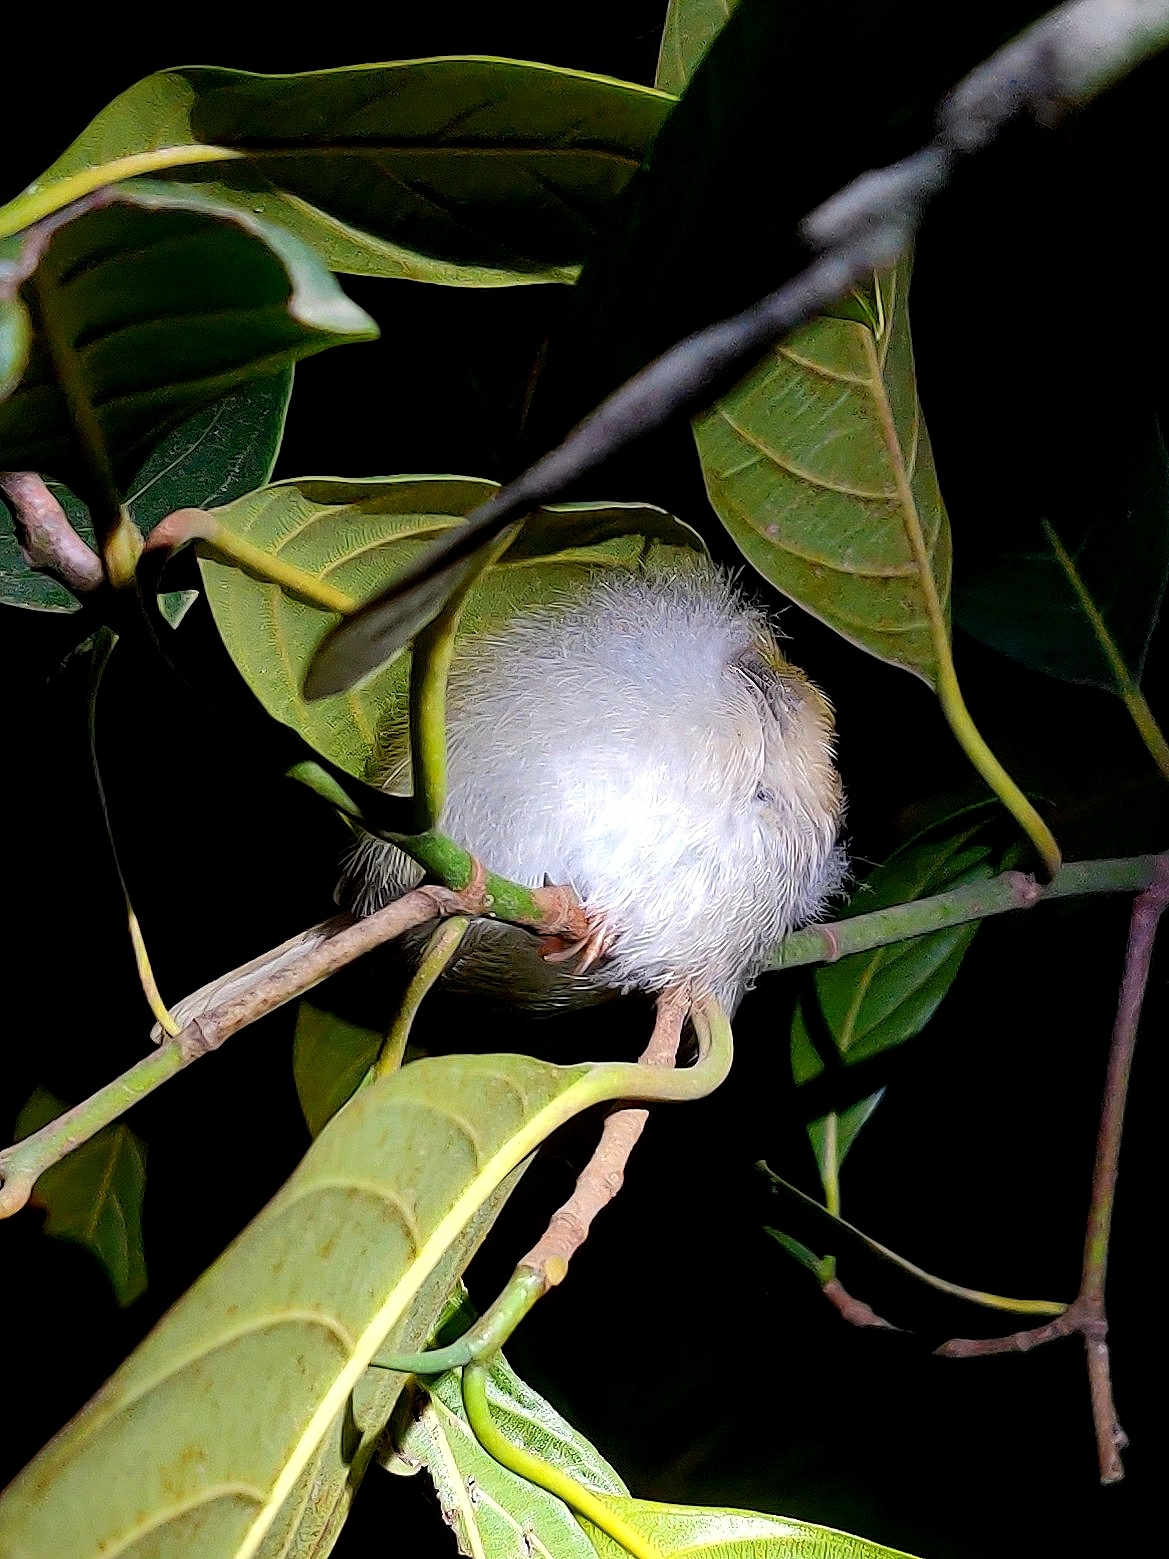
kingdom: Animalia
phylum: Chordata
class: Aves
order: Passeriformes
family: Cisticolidae
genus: Orthotomus
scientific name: Orthotomus sutorius
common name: Common tailorbird
